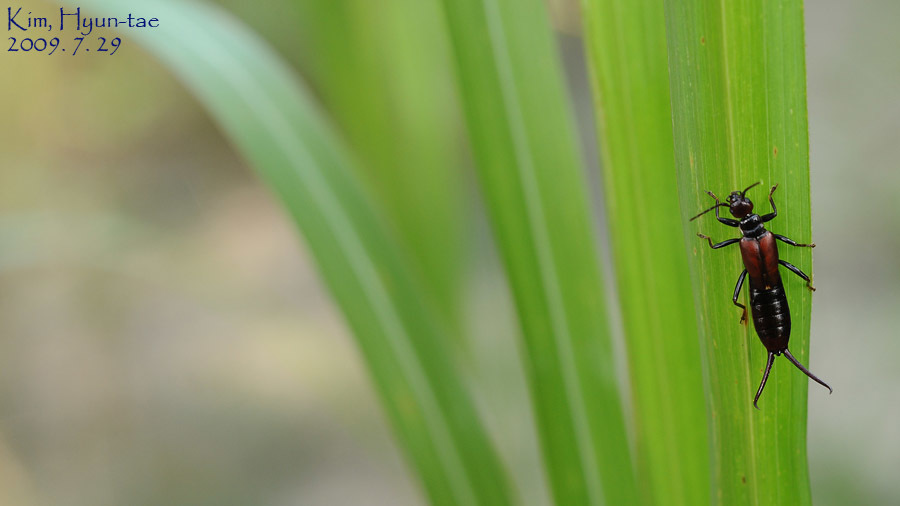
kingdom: Animalia
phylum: Arthropoda
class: Insecta
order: Dermaptera
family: Forficulidae
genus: Timomenus
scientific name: Timomenus komarovi
